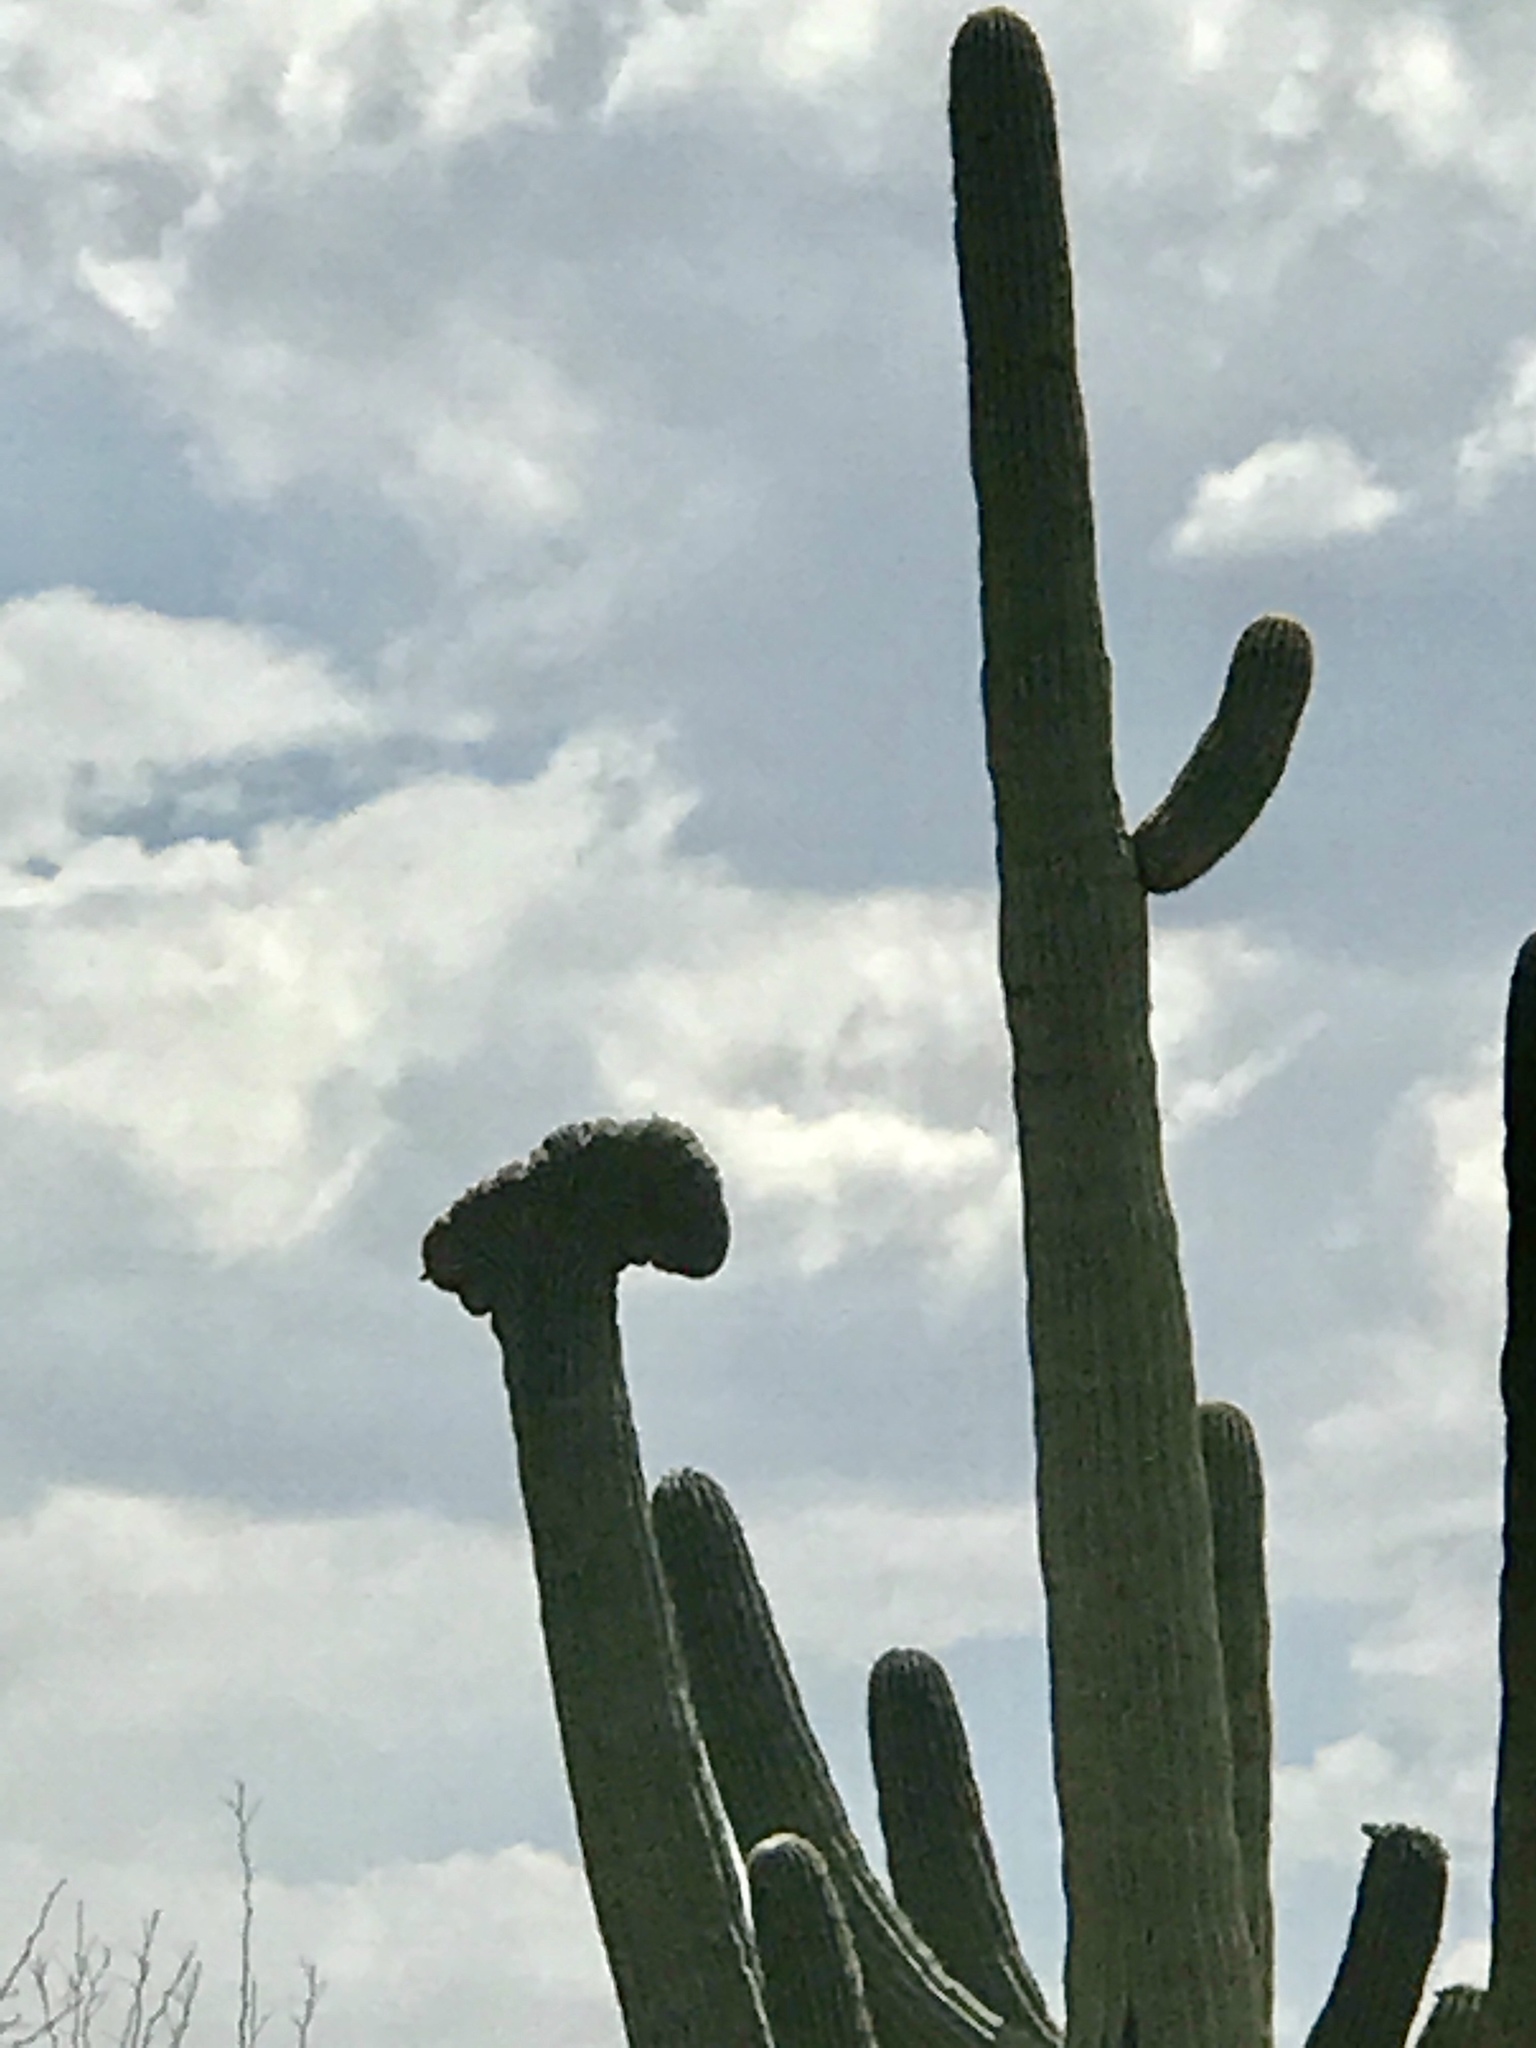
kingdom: Plantae
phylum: Tracheophyta
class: Magnoliopsida
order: Caryophyllales
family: Cactaceae
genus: Carnegiea
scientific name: Carnegiea gigantea
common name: Saguaro
